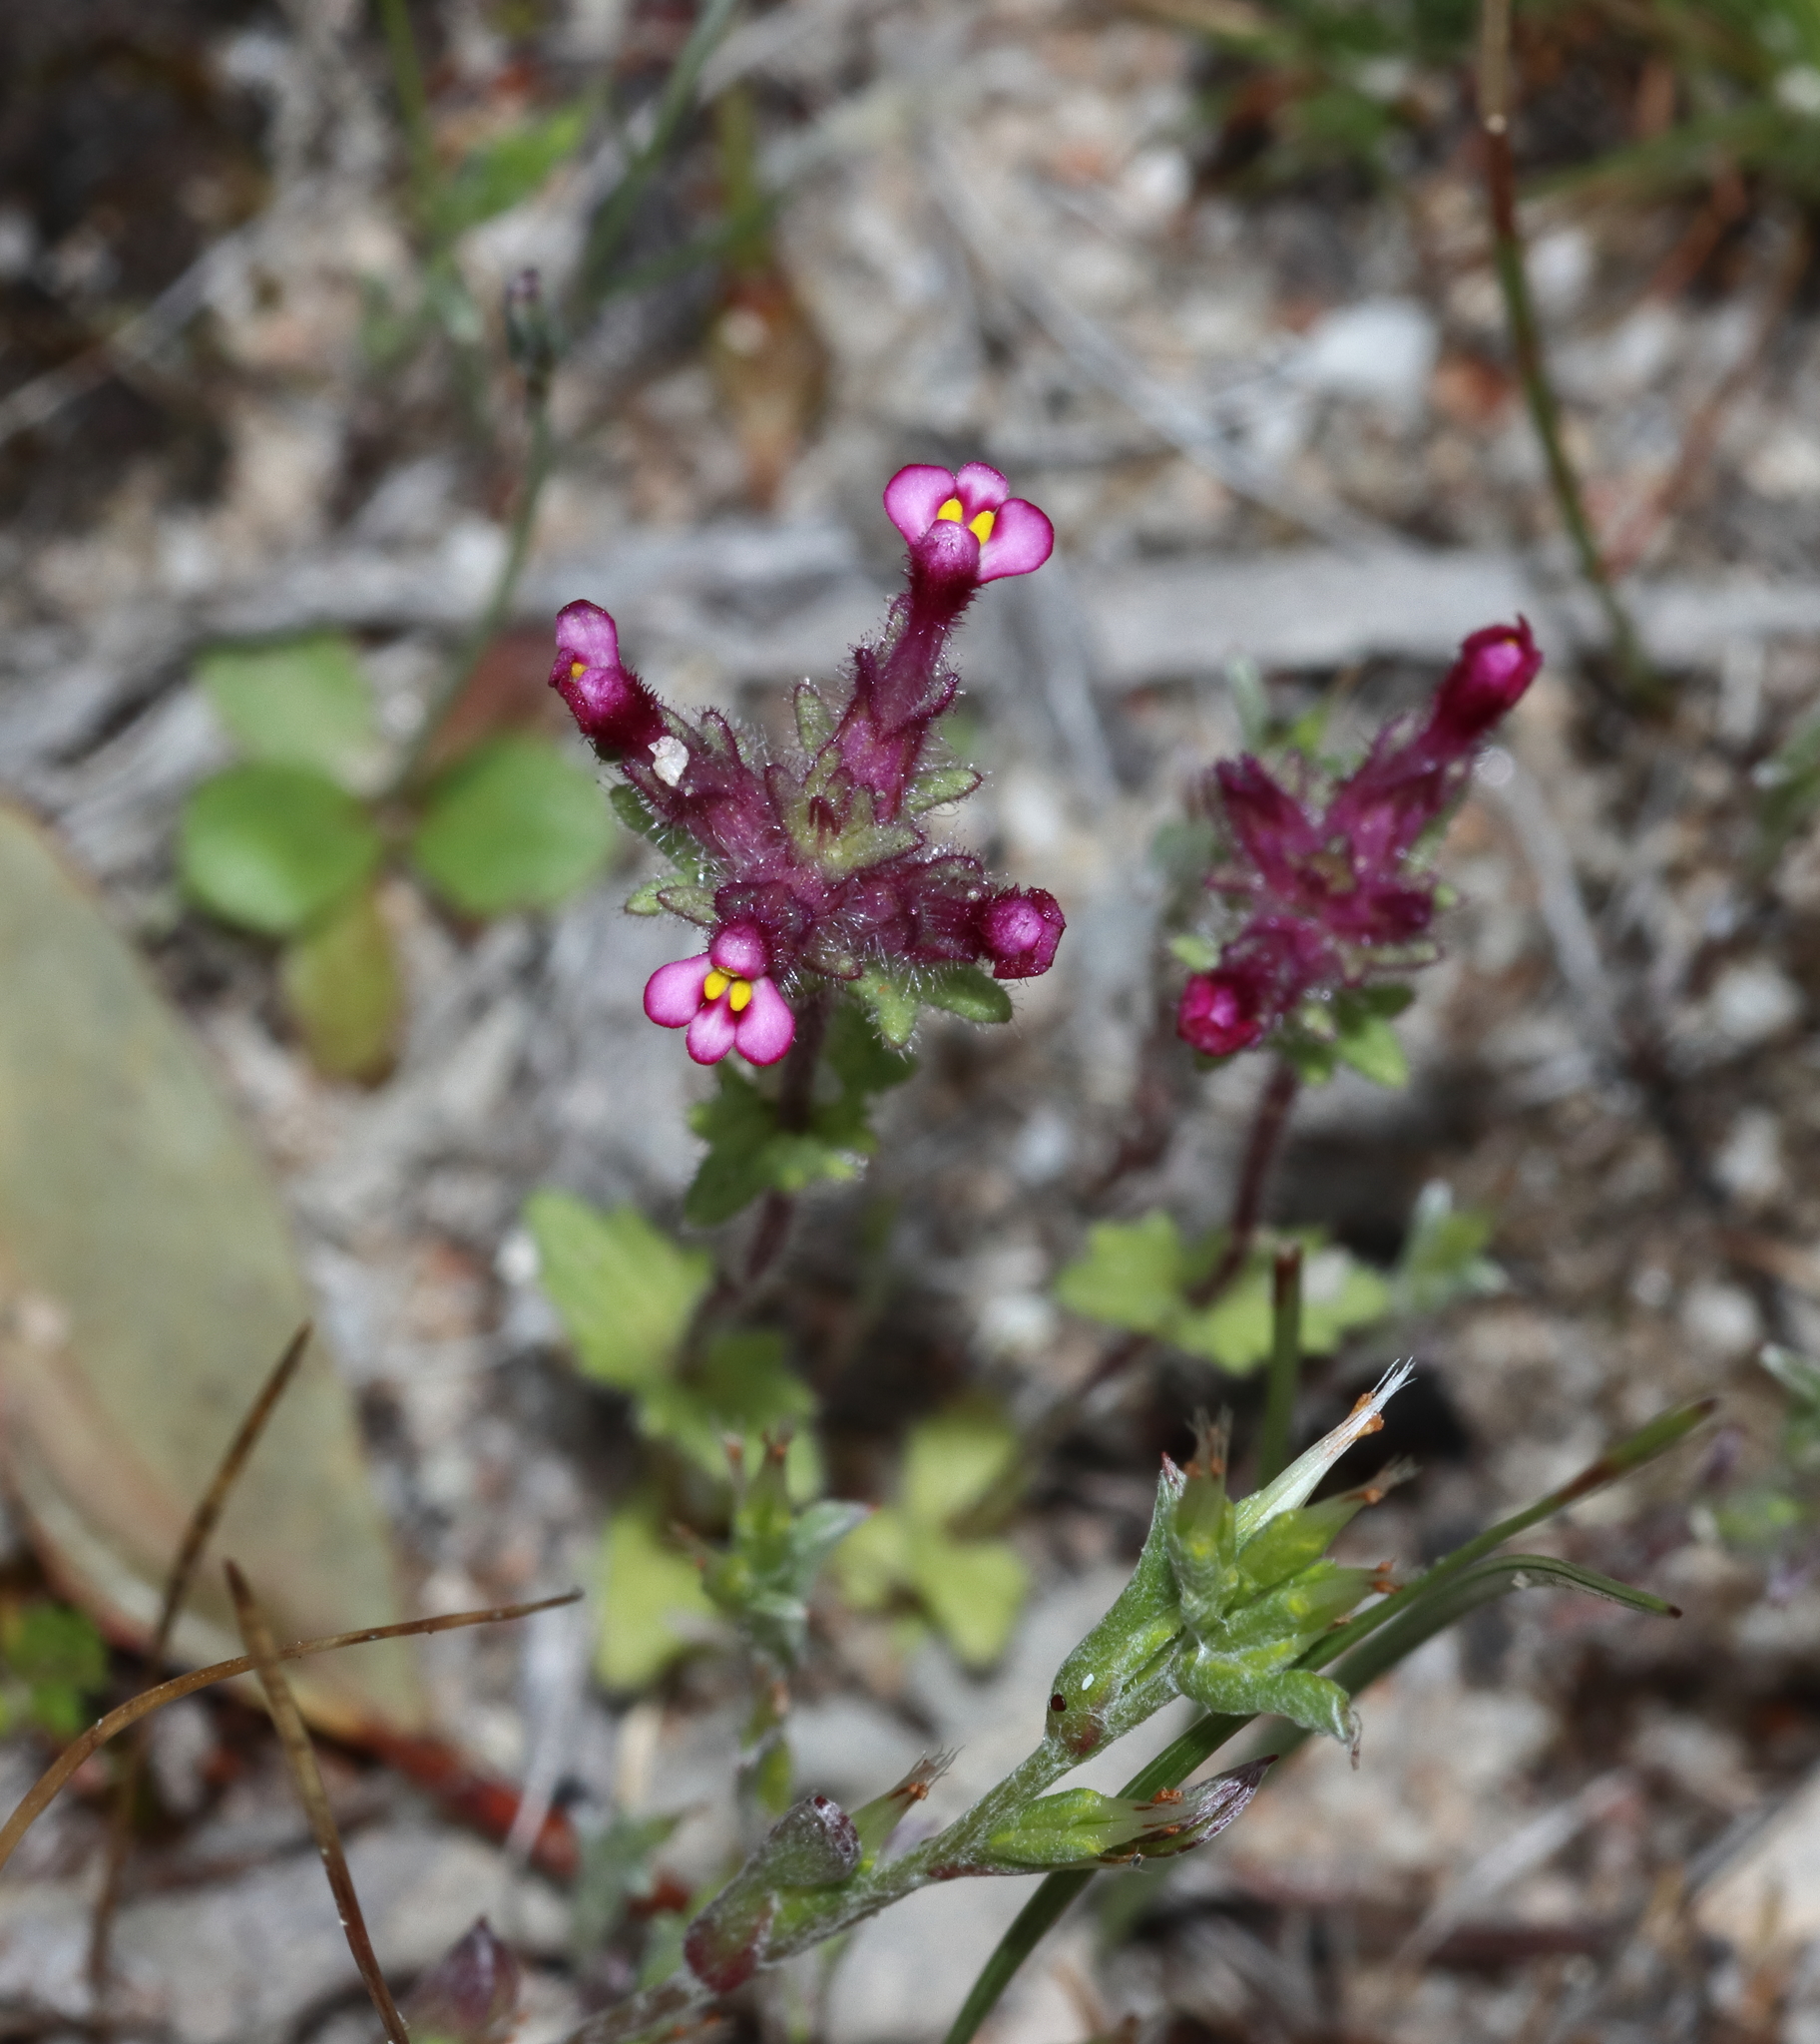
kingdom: Plantae
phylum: Tracheophyta
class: Magnoliopsida
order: Lamiales
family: Orobanchaceae
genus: Parentucellia
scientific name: Parentucellia latifolia
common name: Broadleaf glandweed
